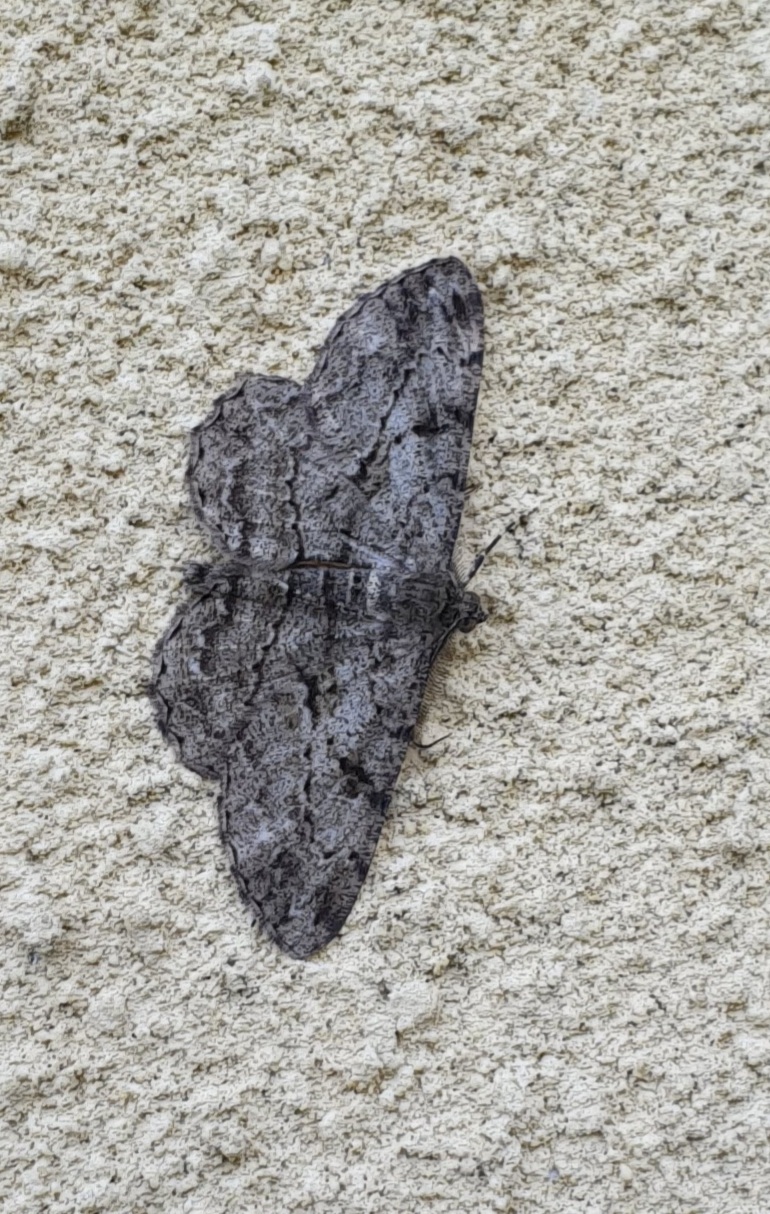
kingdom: Animalia
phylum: Arthropoda
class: Insecta
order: Lepidoptera
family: Geometridae
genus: Peribatodes
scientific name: Peribatodes rhomboidaria
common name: Willow beauty
